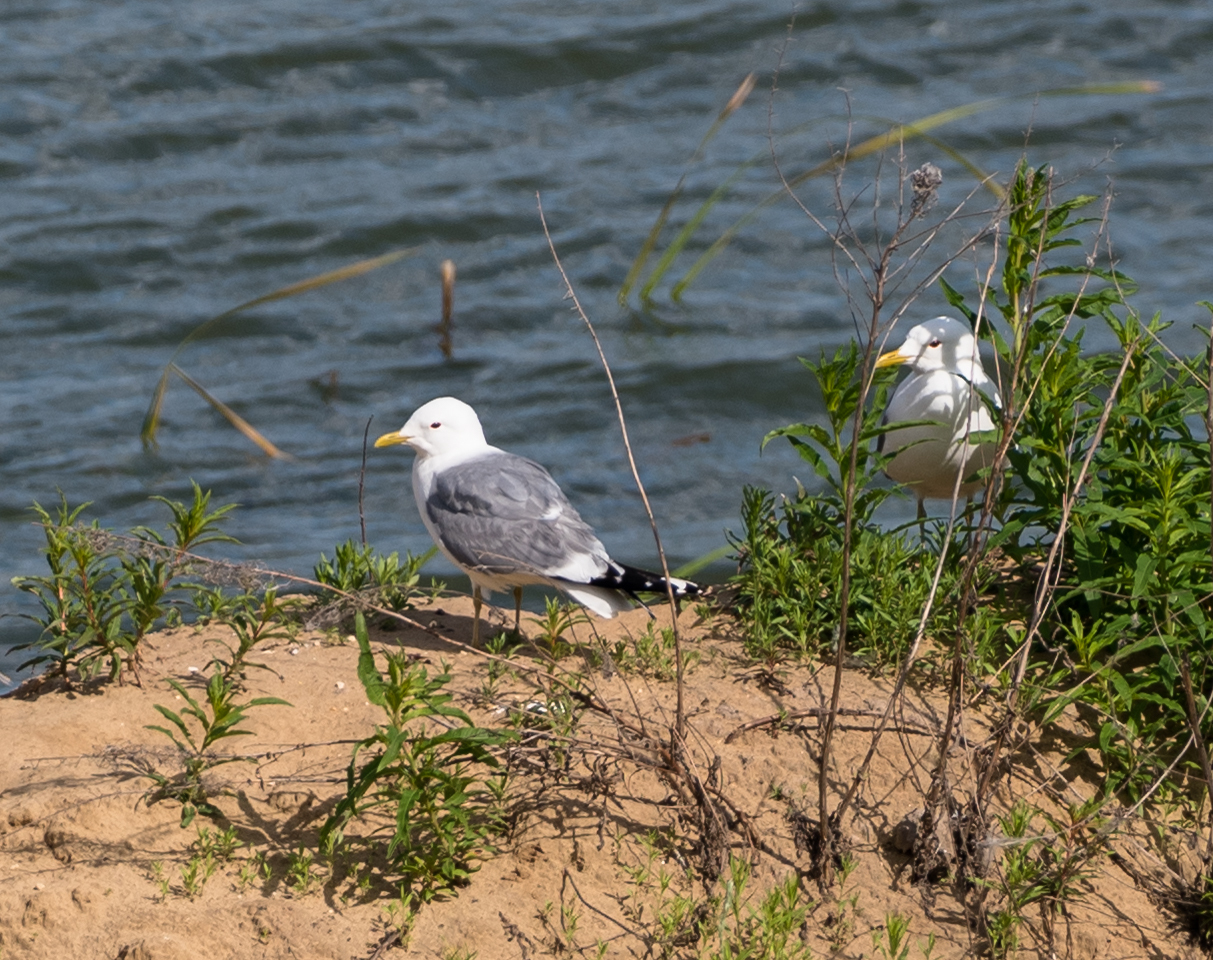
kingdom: Animalia
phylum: Chordata
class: Aves
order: Charadriiformes
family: Laridae
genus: Larus
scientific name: Larus canus
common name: Mew gull
